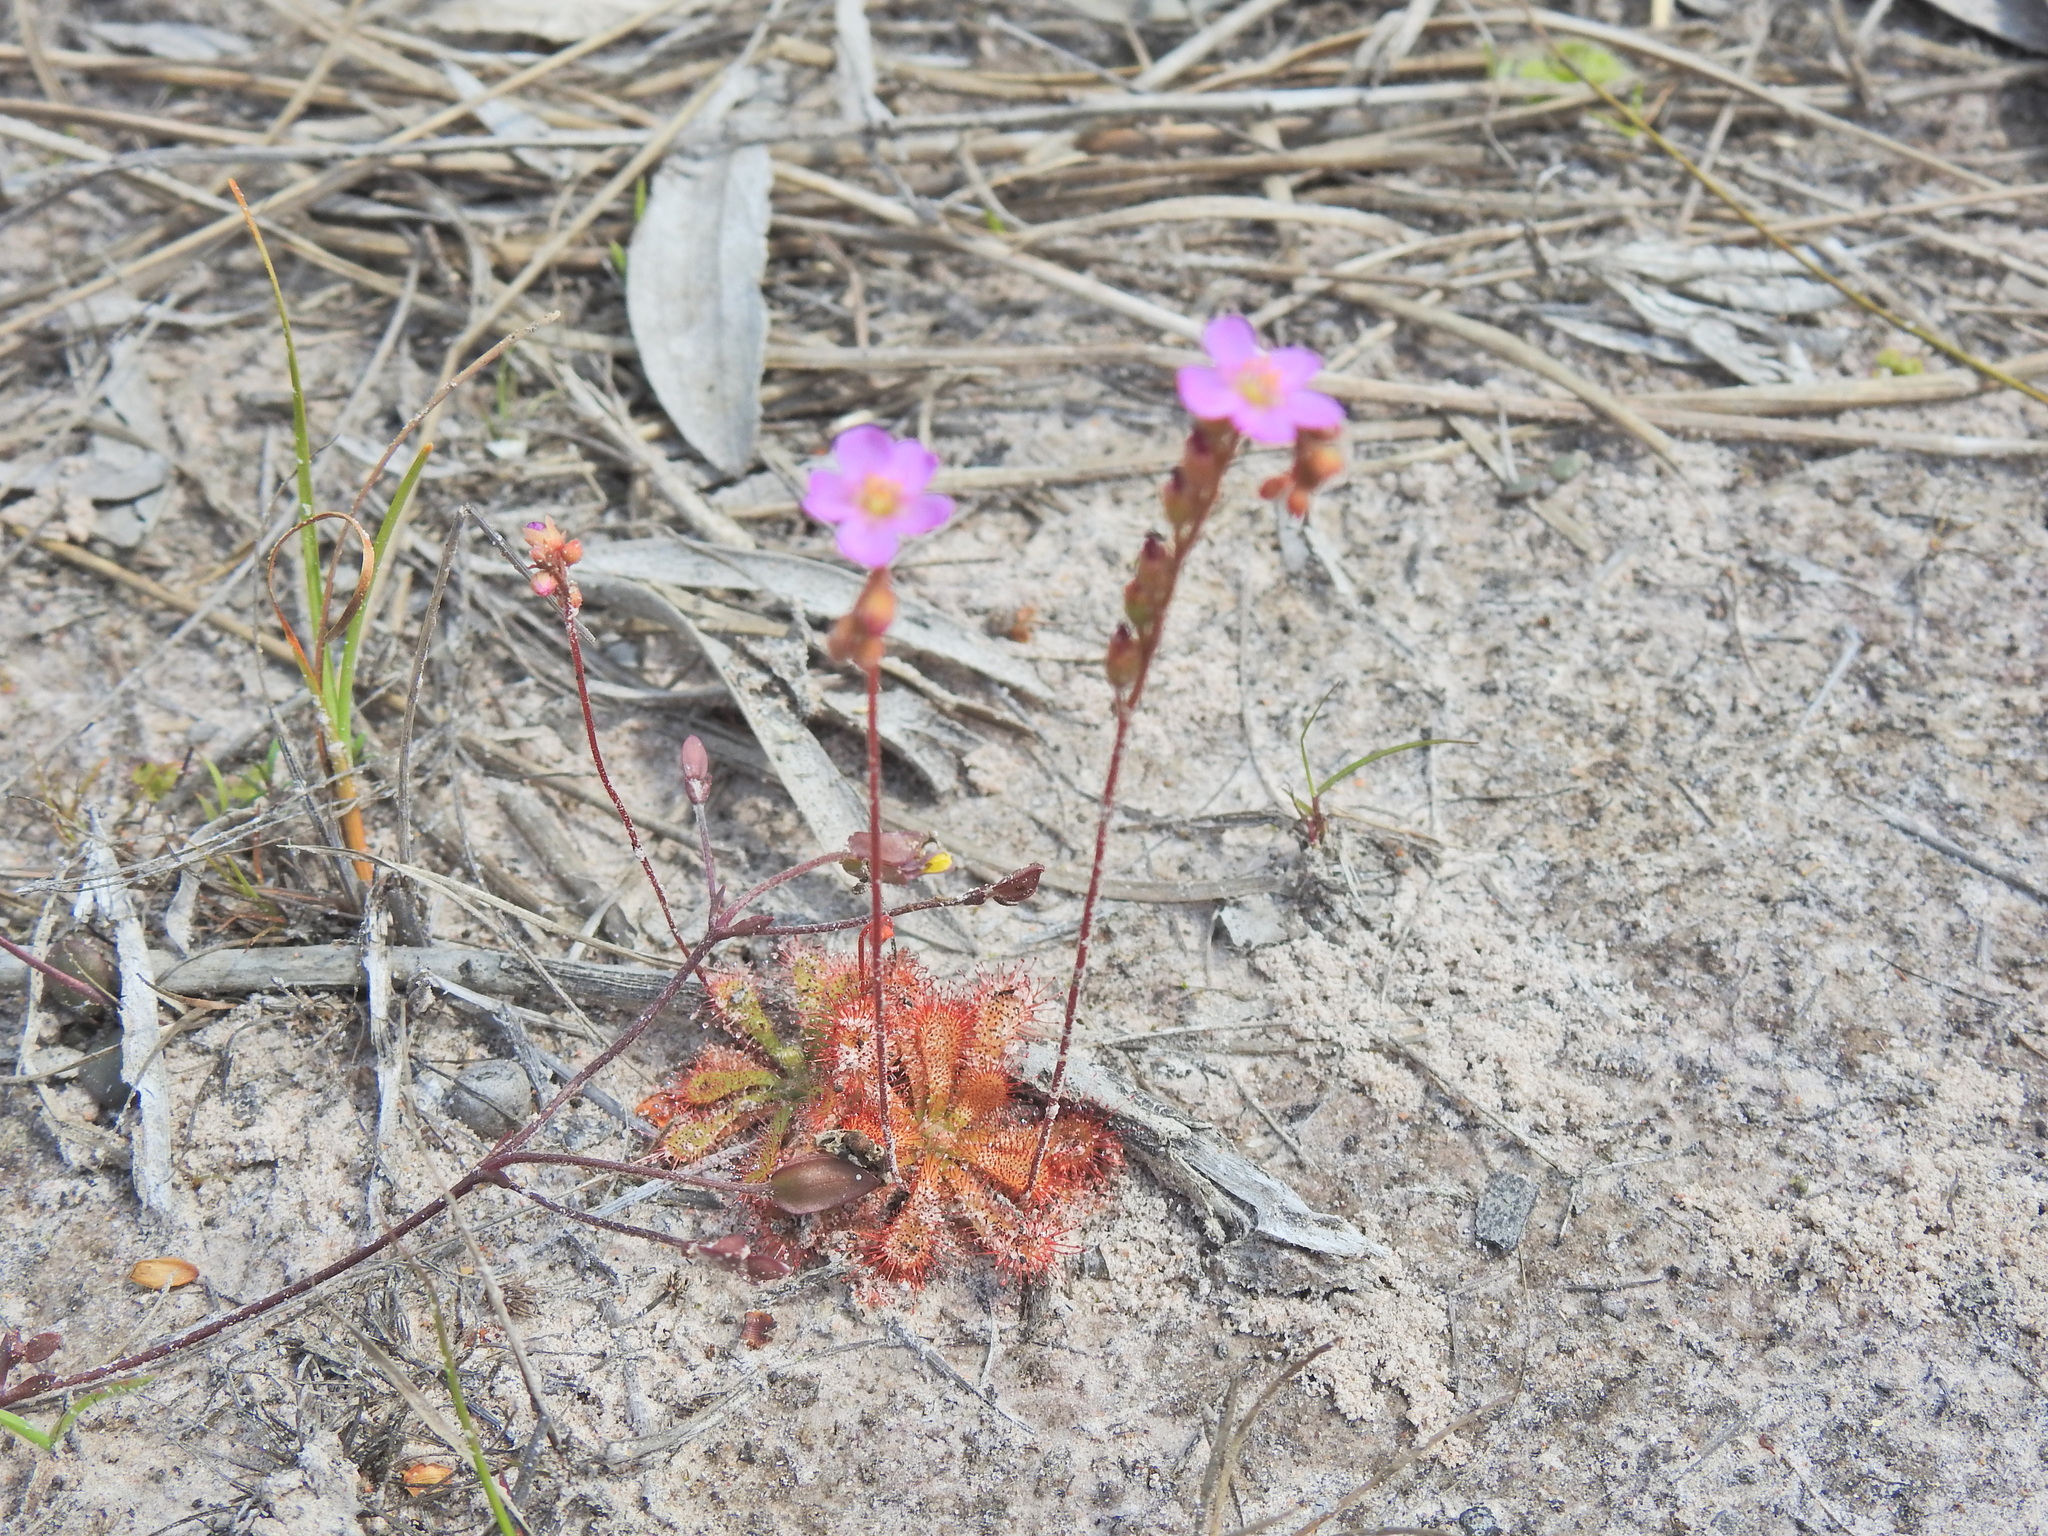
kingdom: Plantae
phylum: Tracheophyta
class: Magnoliopsida
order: Caryophyllales
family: Droseraceae
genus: Drosera
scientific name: Drosera spatulata
